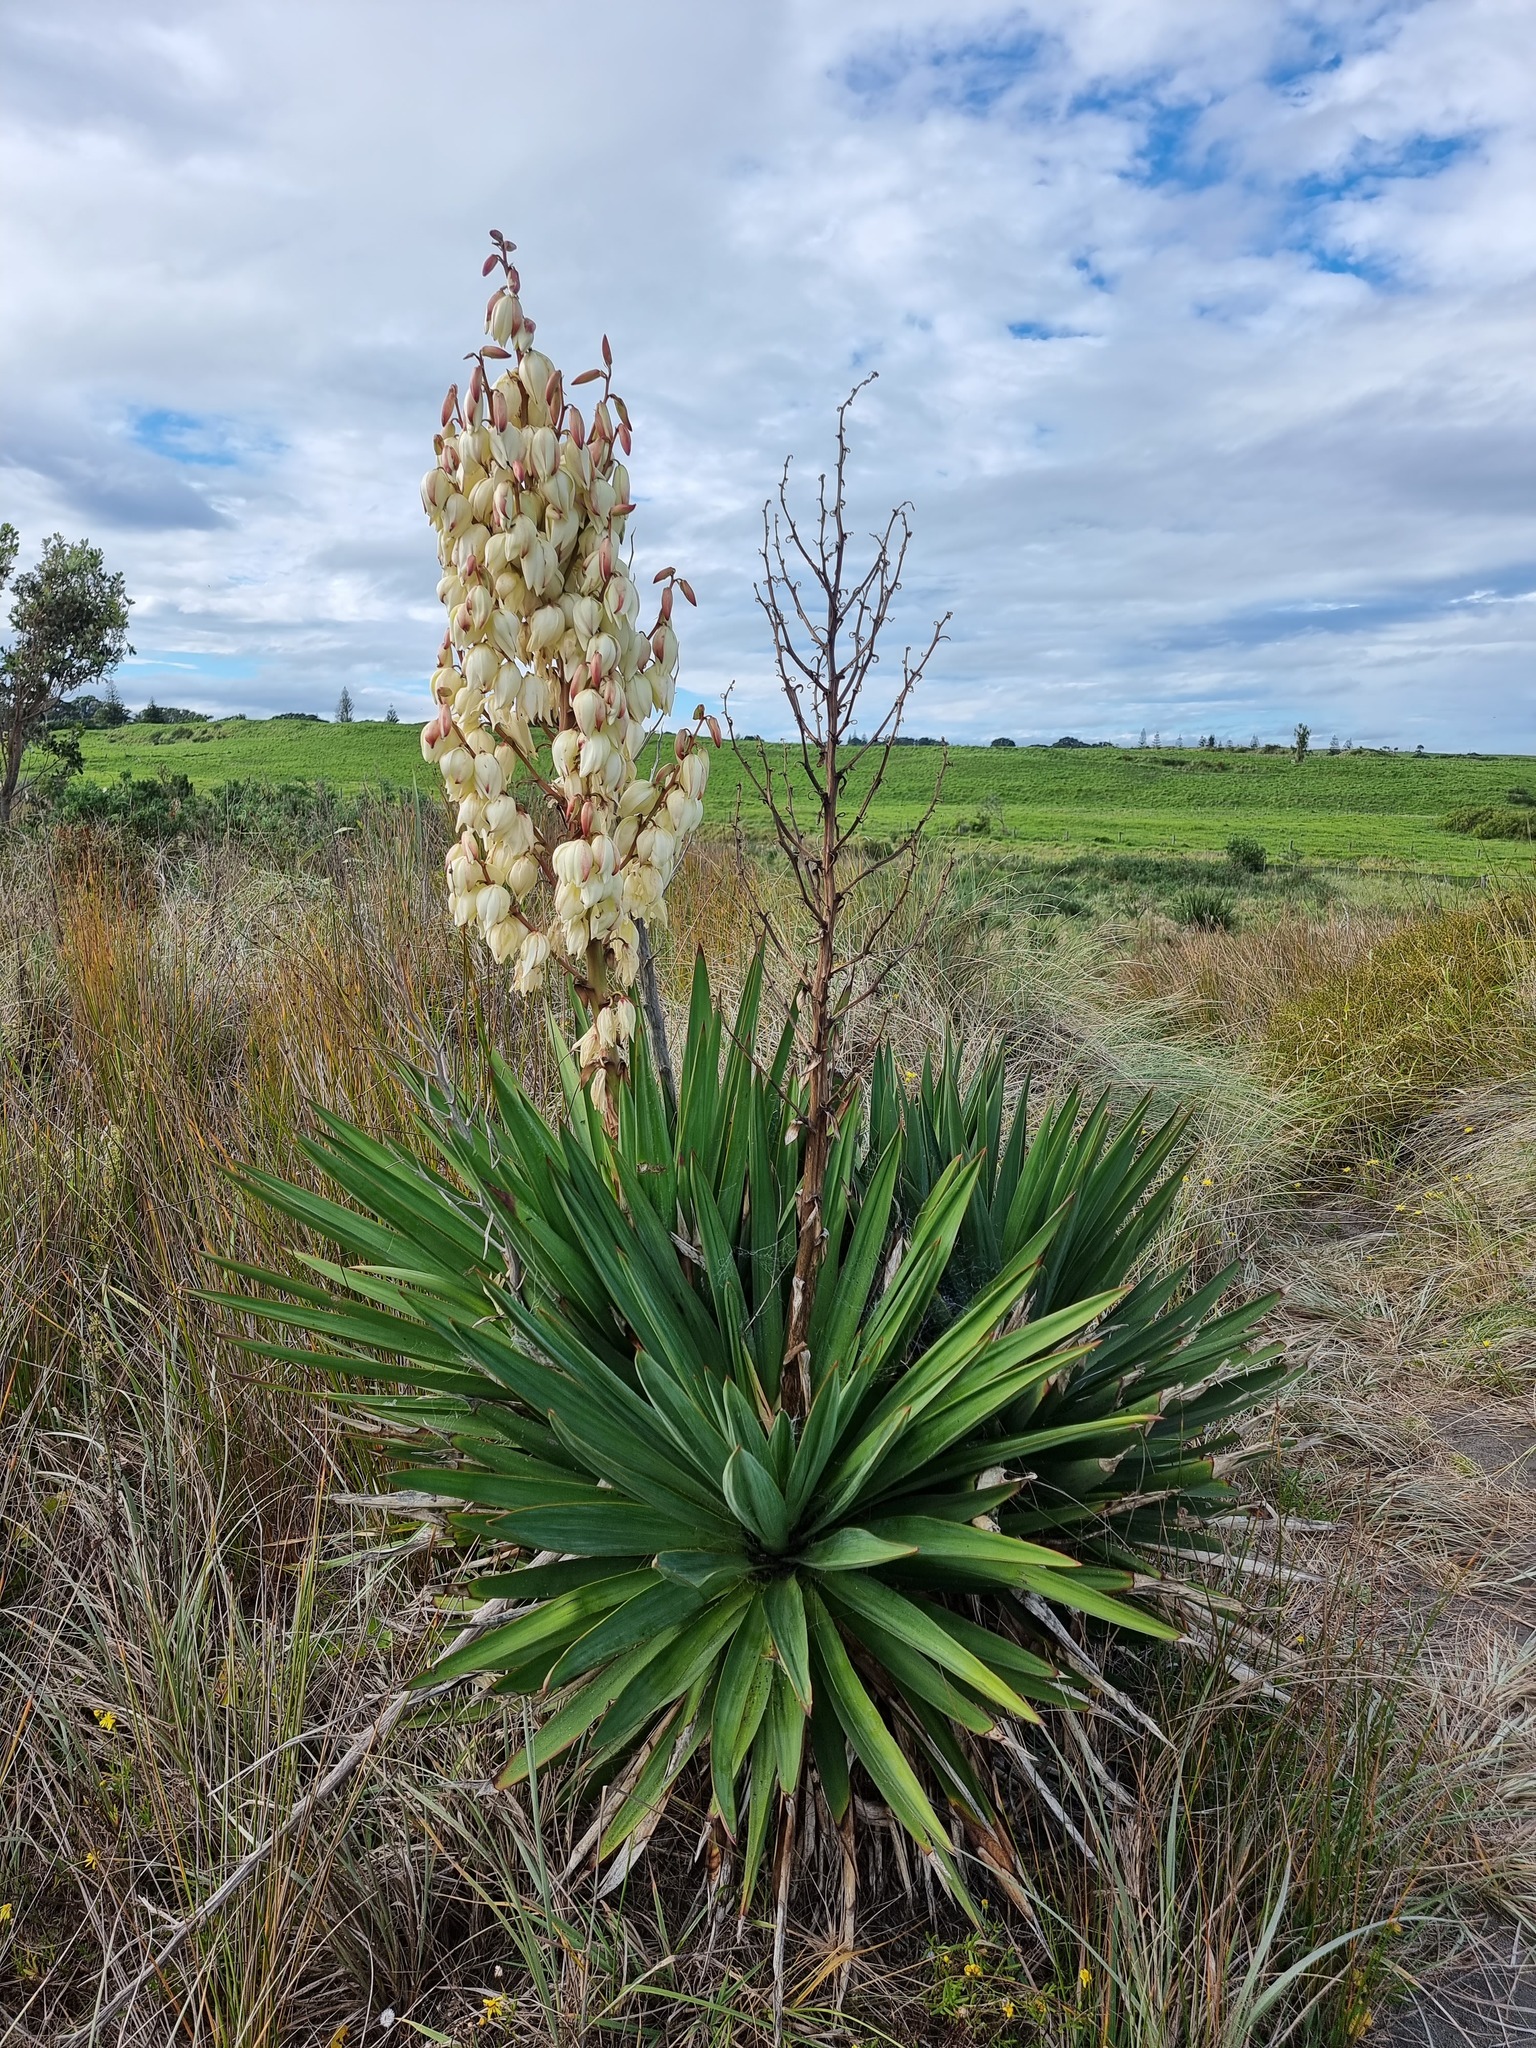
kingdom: Plantae
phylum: Tracheophyta
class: Liliopsida
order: Asparagales
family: Asparagaceae
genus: Yucca
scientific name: Yucca gloriosa
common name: Spanish-dagger
